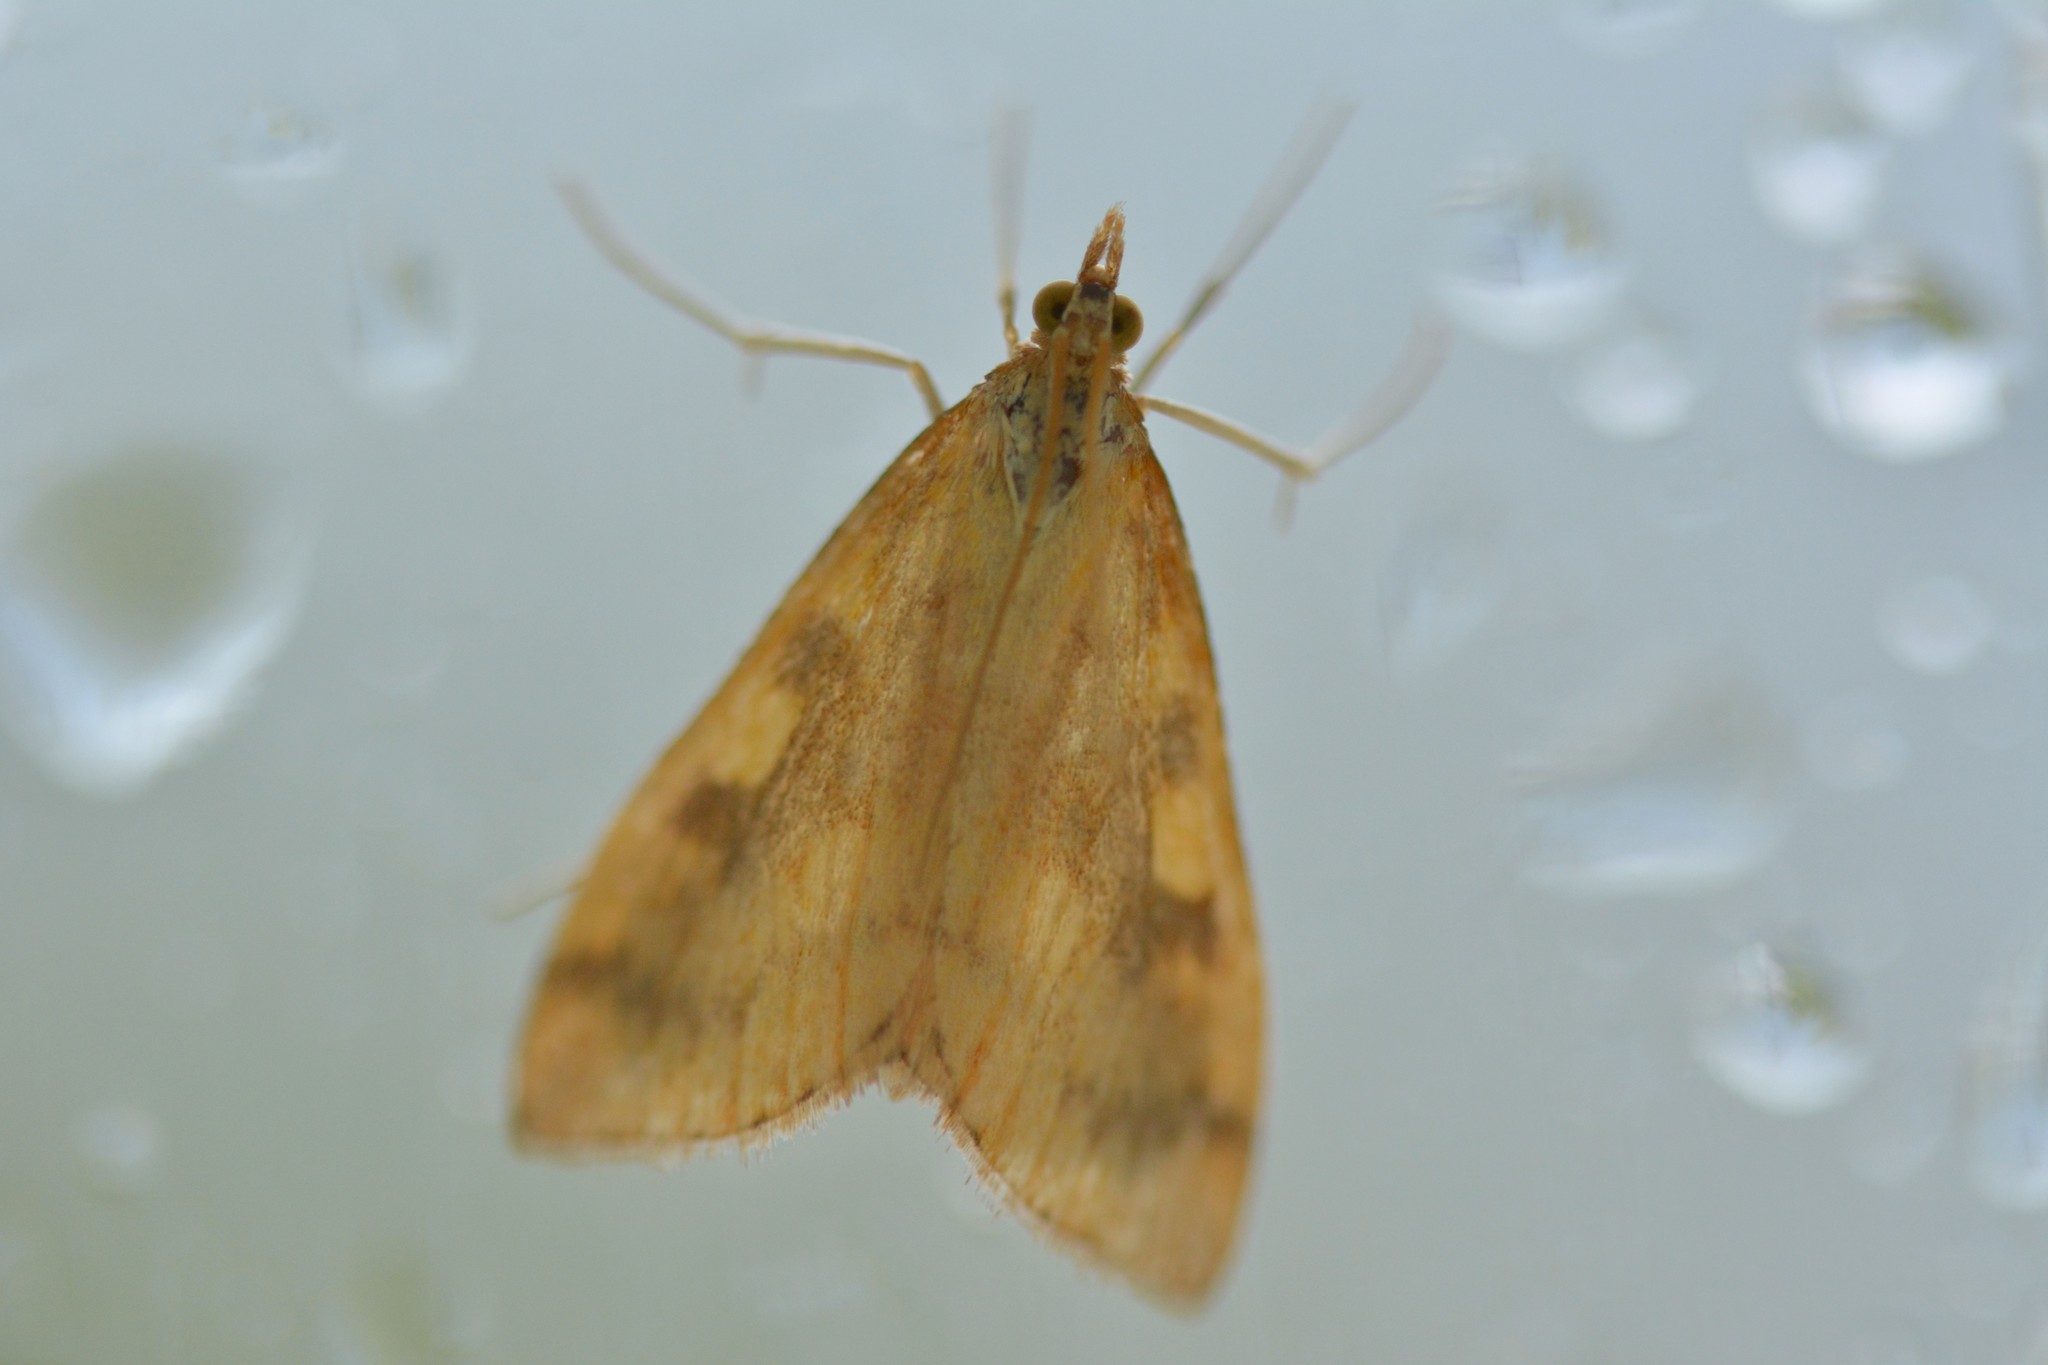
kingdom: Animalia
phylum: Arthropoda
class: Insecta
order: Lepidoptera
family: Crambidae
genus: Udea
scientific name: Udea Mnesictena flavidalis
